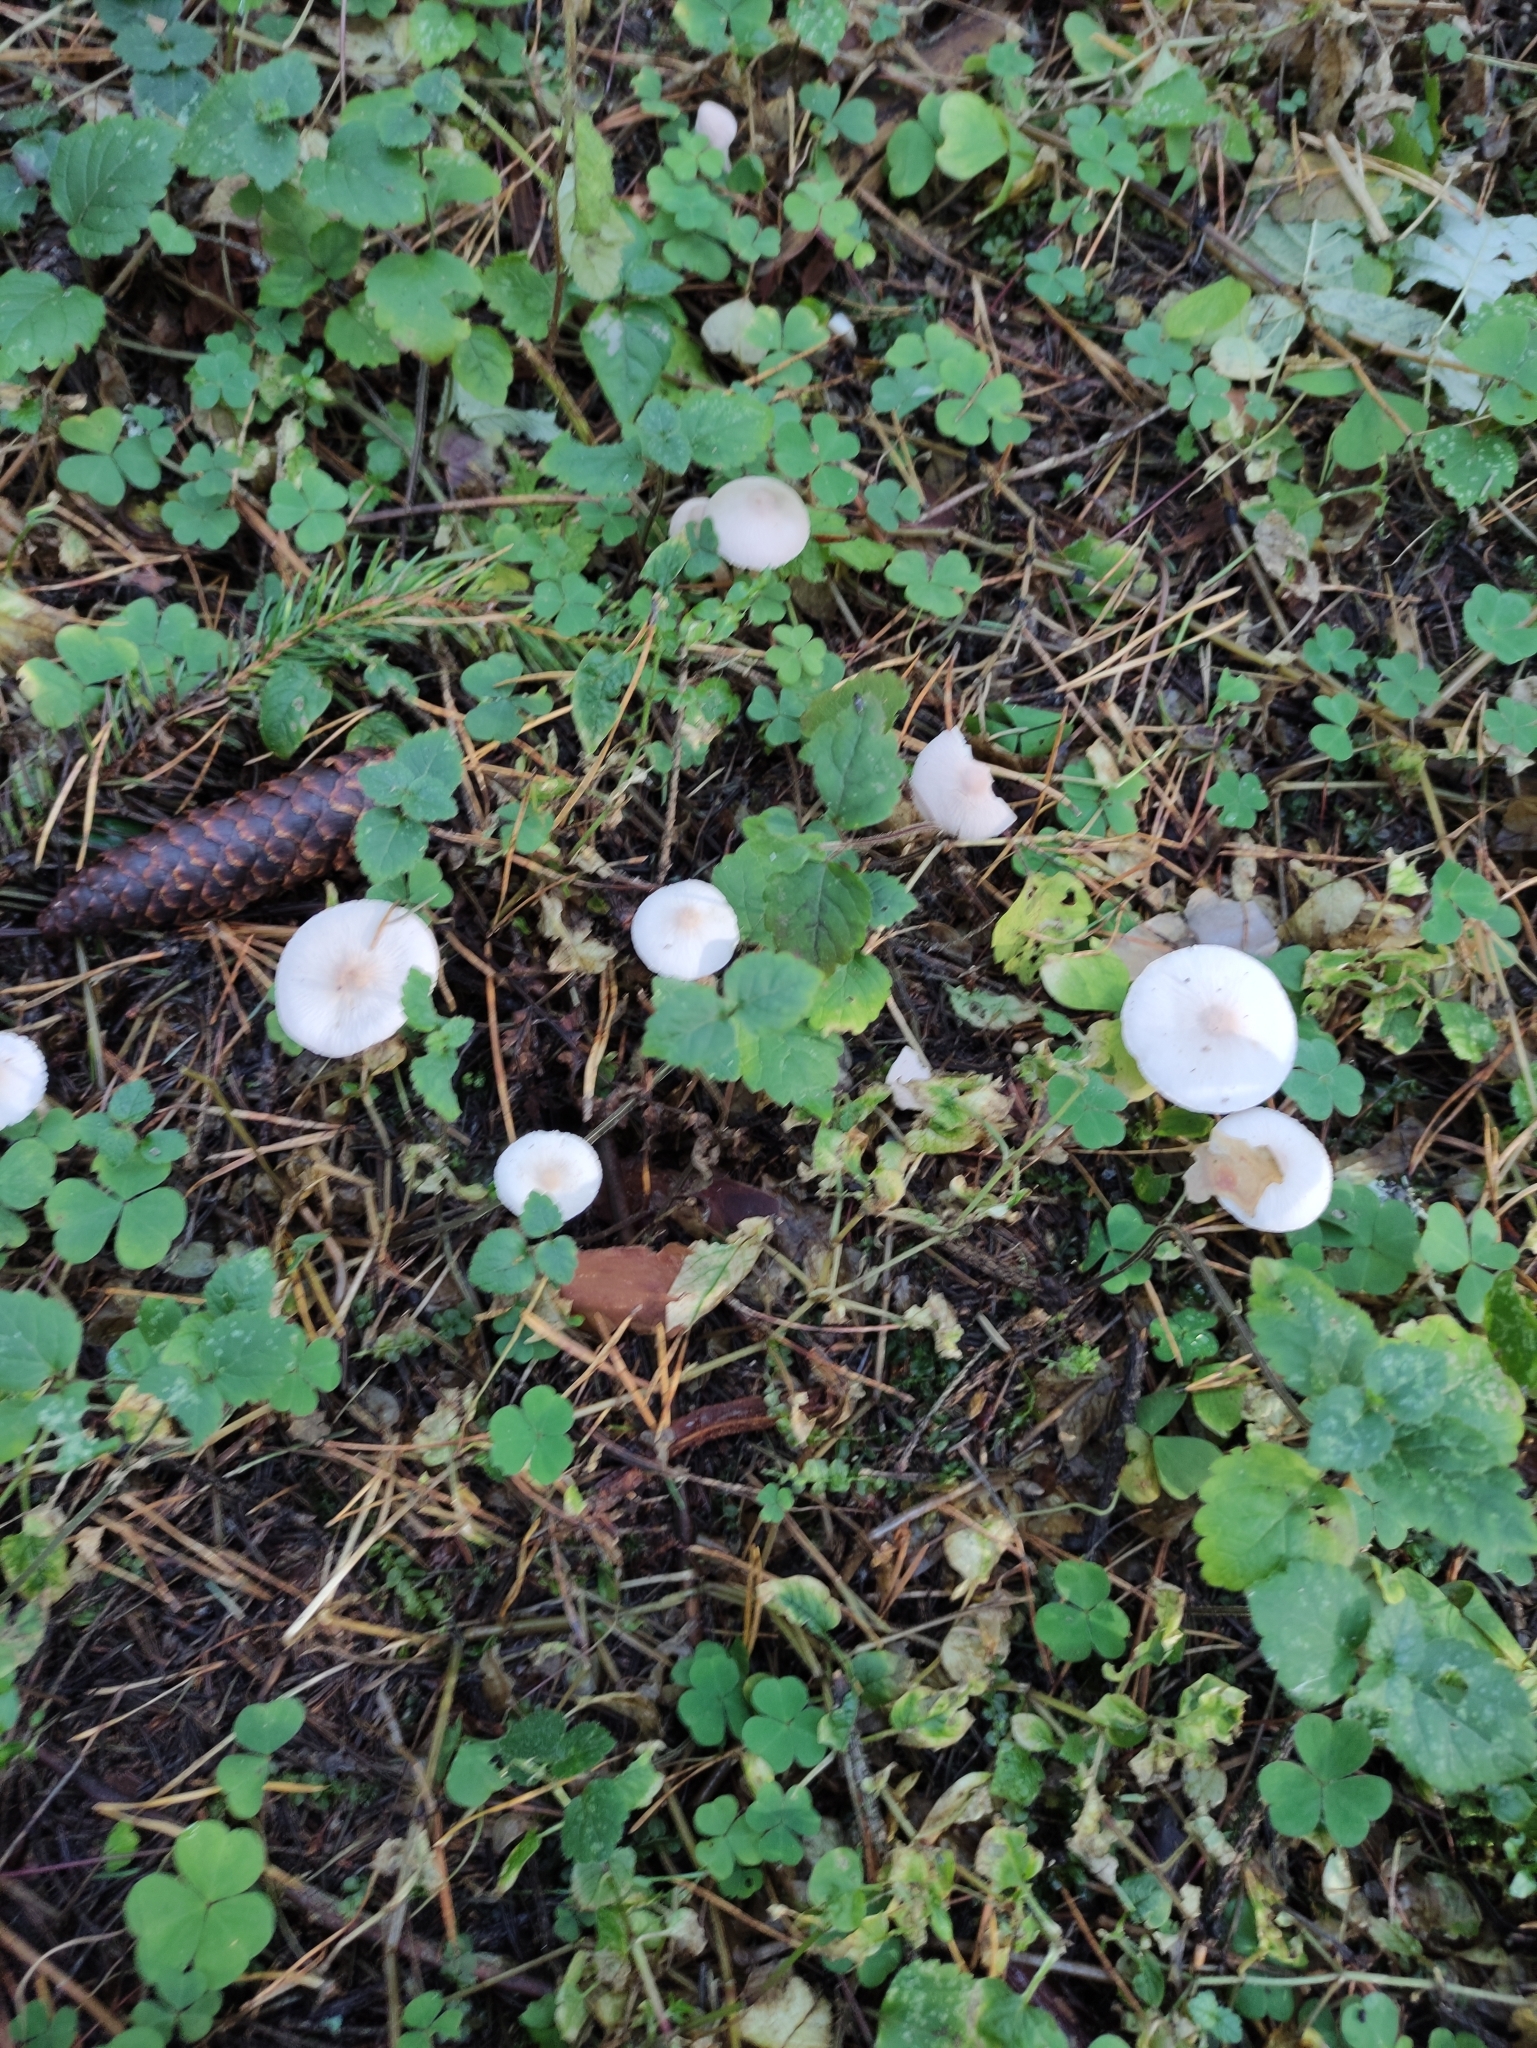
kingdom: Fungi
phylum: Basidiomycota
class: Agaricomycetes
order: Agaricales
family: Tricholomataceae
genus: Cystoderma
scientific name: Cystoderma carcharias
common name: Pearly powdercap
